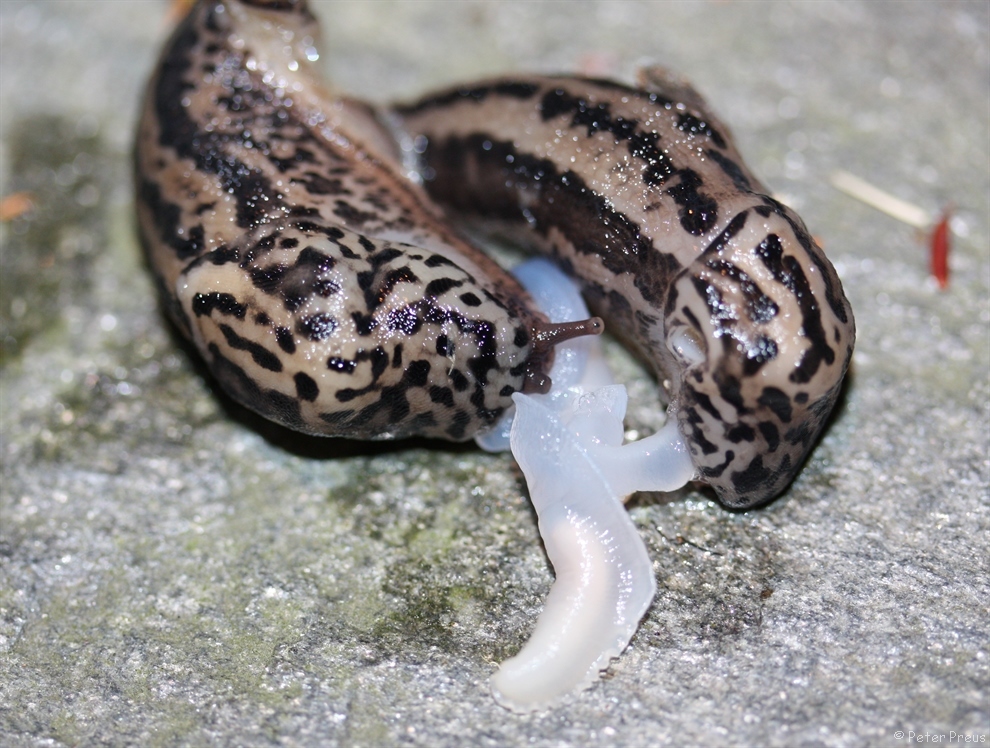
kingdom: Animalia
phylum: Mollusca
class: Gastropoda
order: Stylommatophora
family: Limacidae
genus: Limax
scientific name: Limax maximus
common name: Great grey slug
